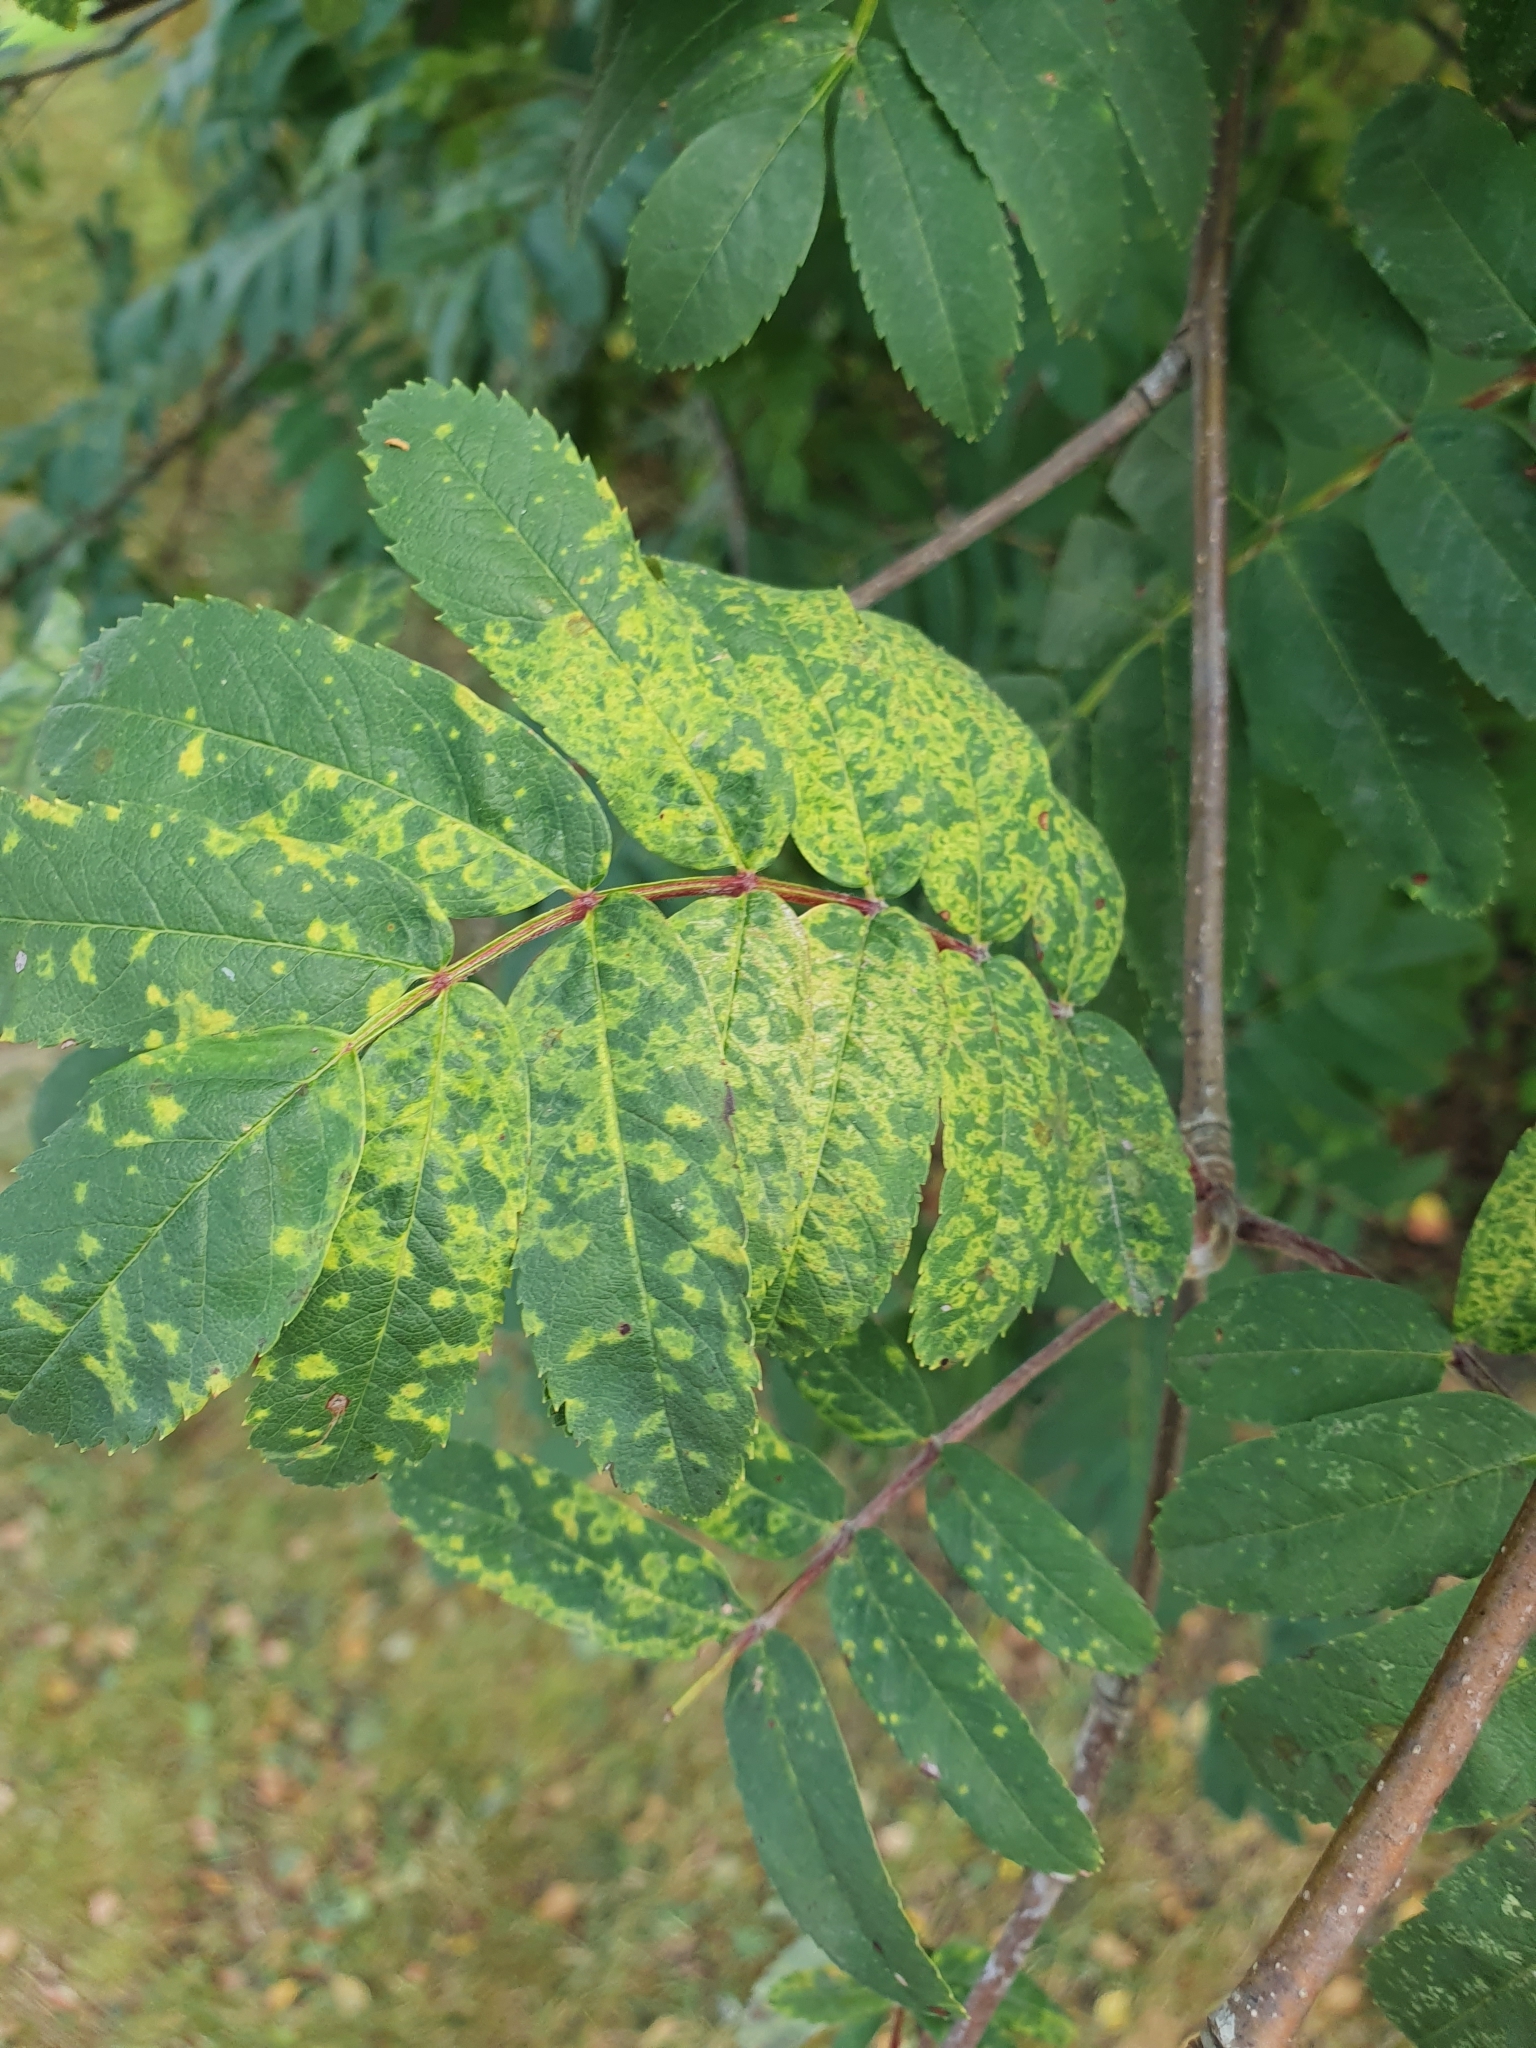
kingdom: Viruses
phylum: Negarnaviricota
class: Ellioviricetes
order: Bunyavirales
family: Fimoviridae
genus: Emaravirus
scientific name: Emaravirus sorbi
